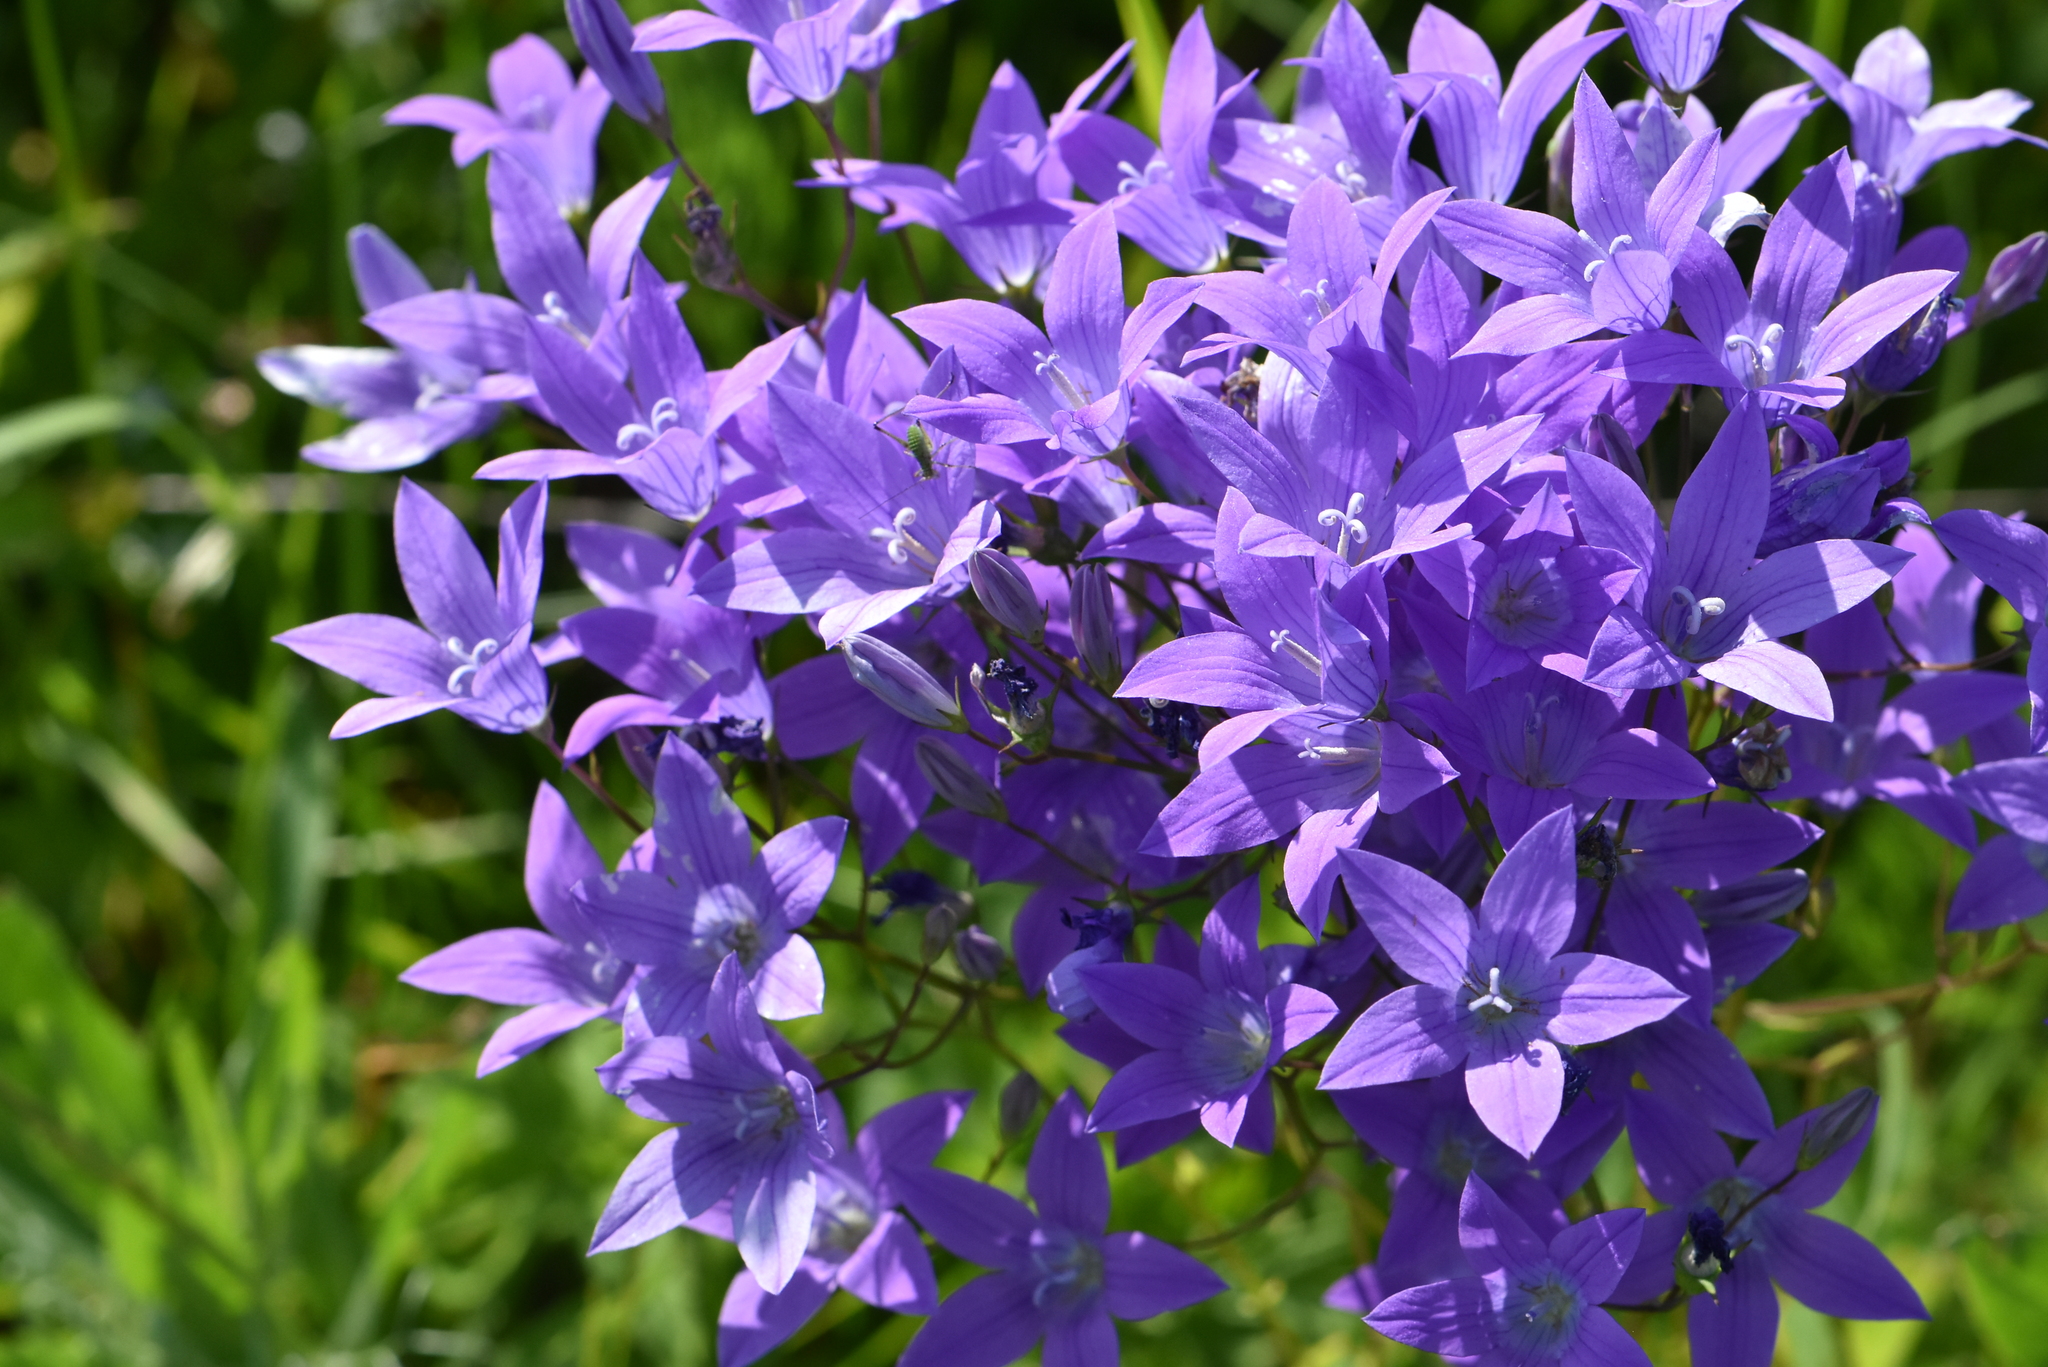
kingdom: Plantae
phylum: Tracheophyta
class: Magnoliopsida
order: Asterales
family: Campanulaceae
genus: Campanula
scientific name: Campanula patula
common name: Spreading bellflower
